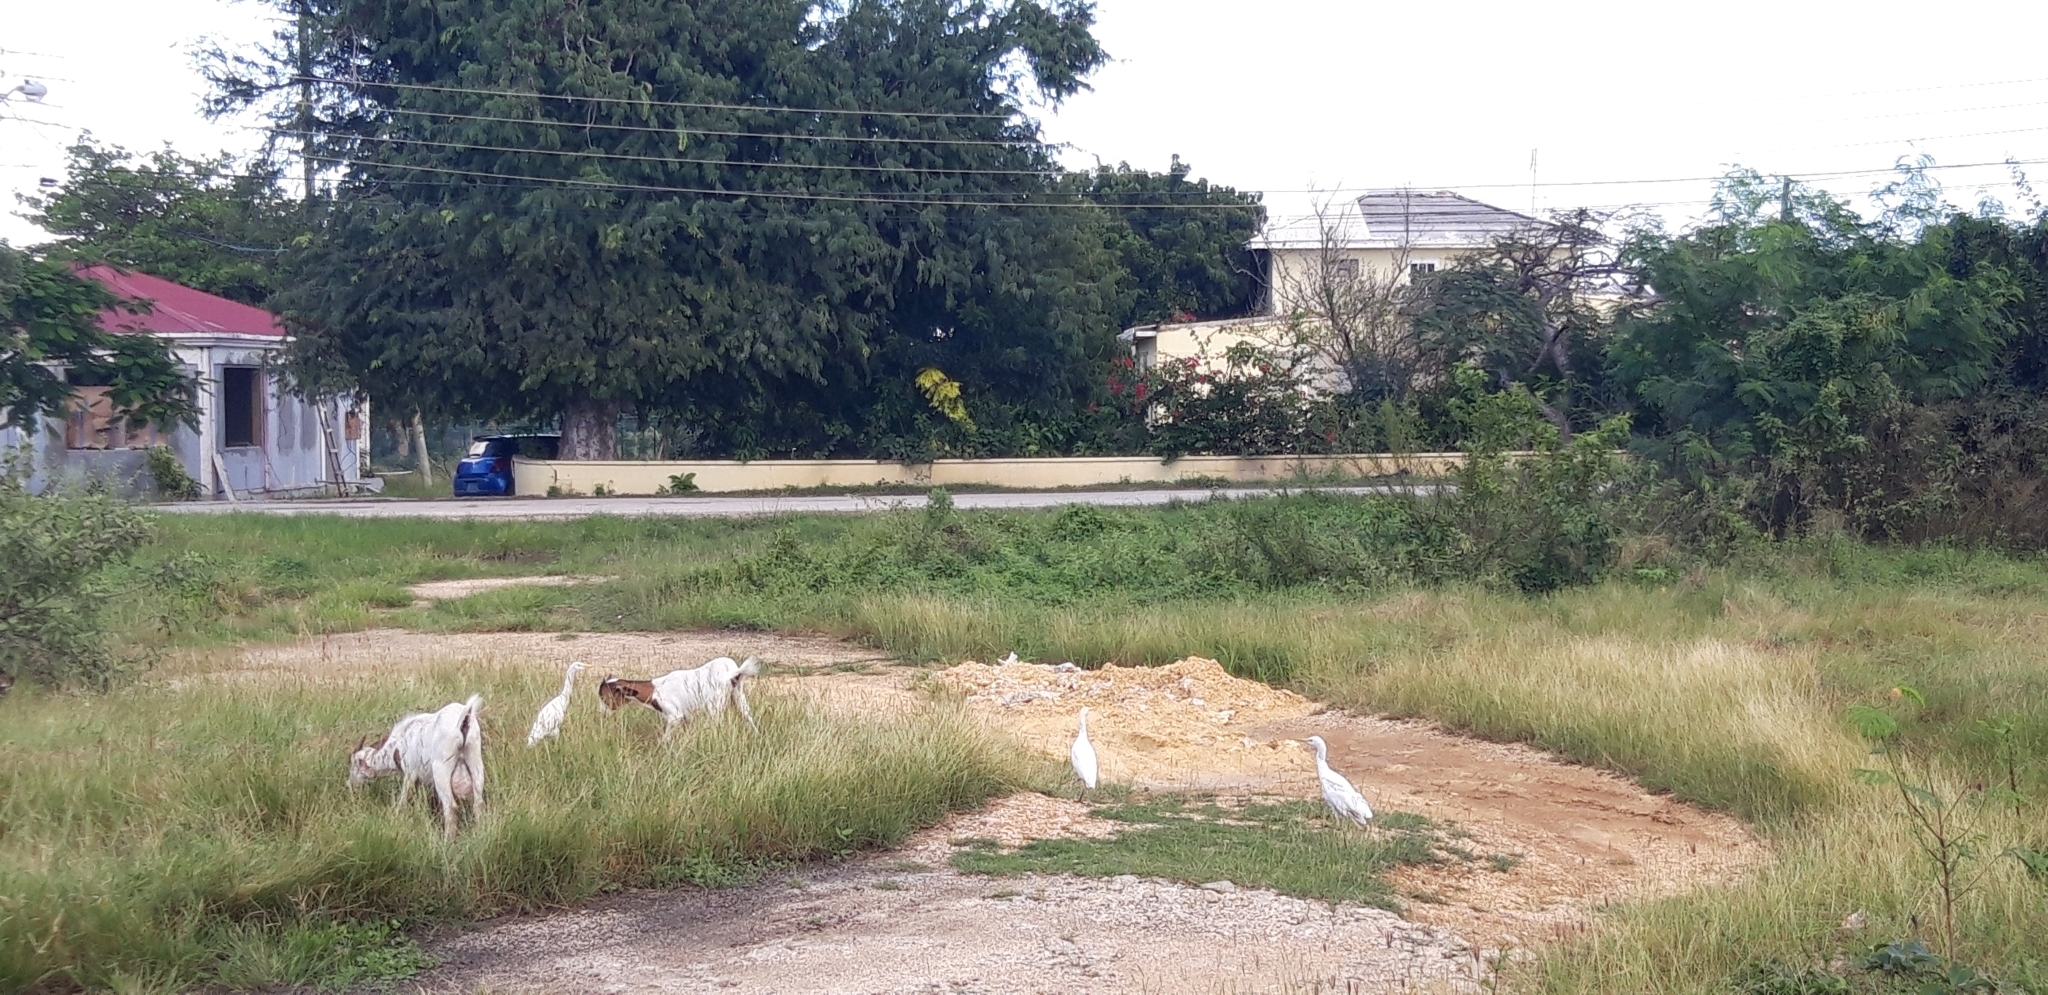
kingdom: Animalia
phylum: Chordata
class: Aves
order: Pelecaniformes
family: Ardeidae
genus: Bubulcus
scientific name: Bubulcus ibis
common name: Cattle egret
